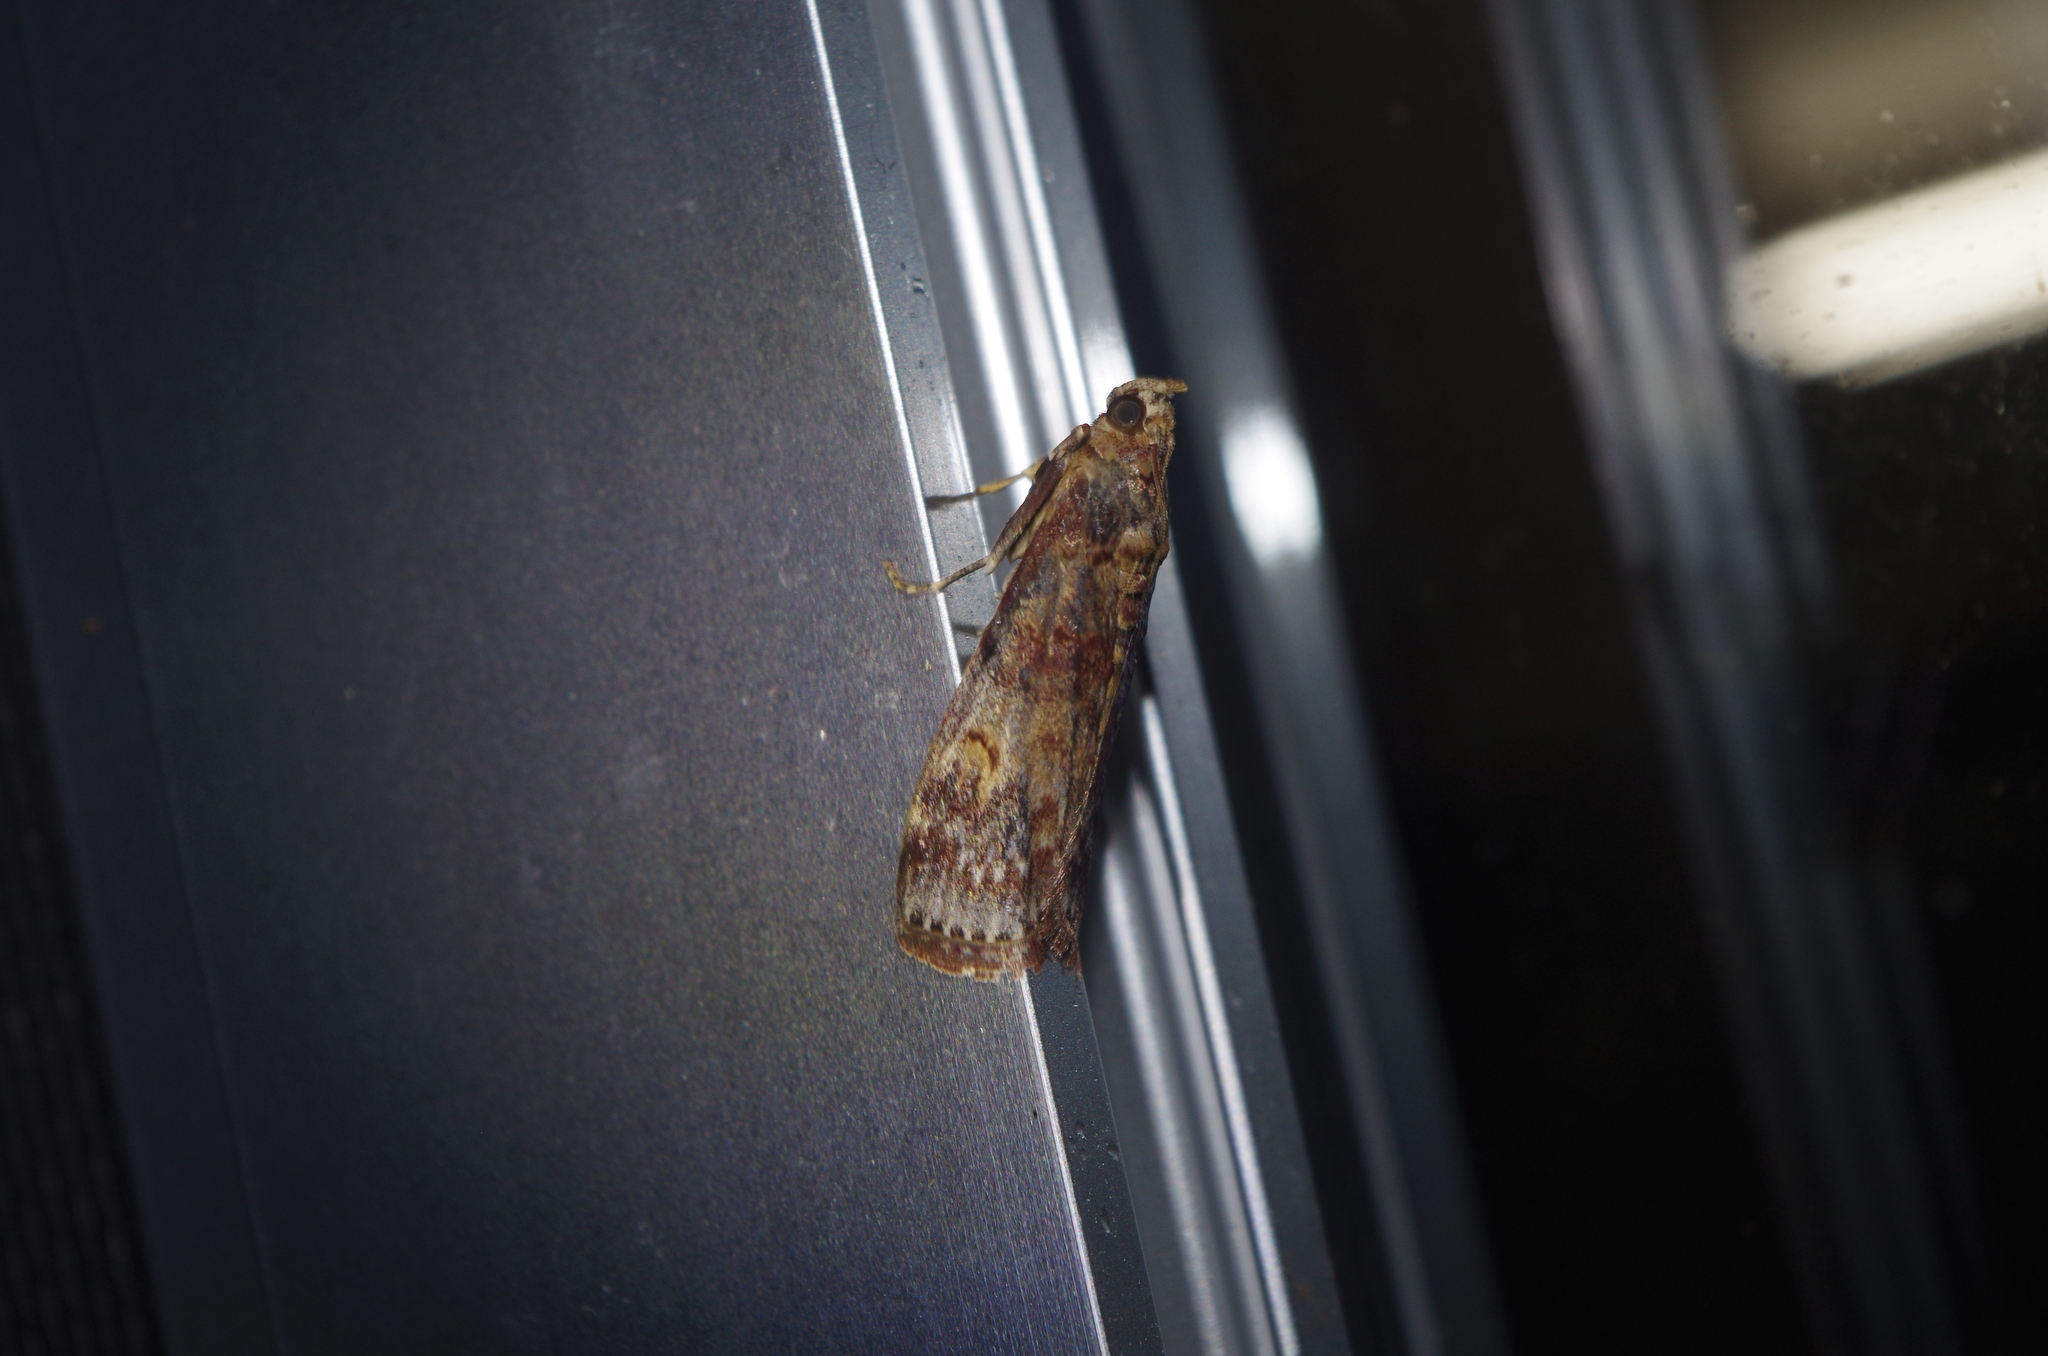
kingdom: Animalia
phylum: Arthropoda
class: Insecta
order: Lepidoptera
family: Pyralidae
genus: Nephopterix
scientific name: Nephopterix proximalis
